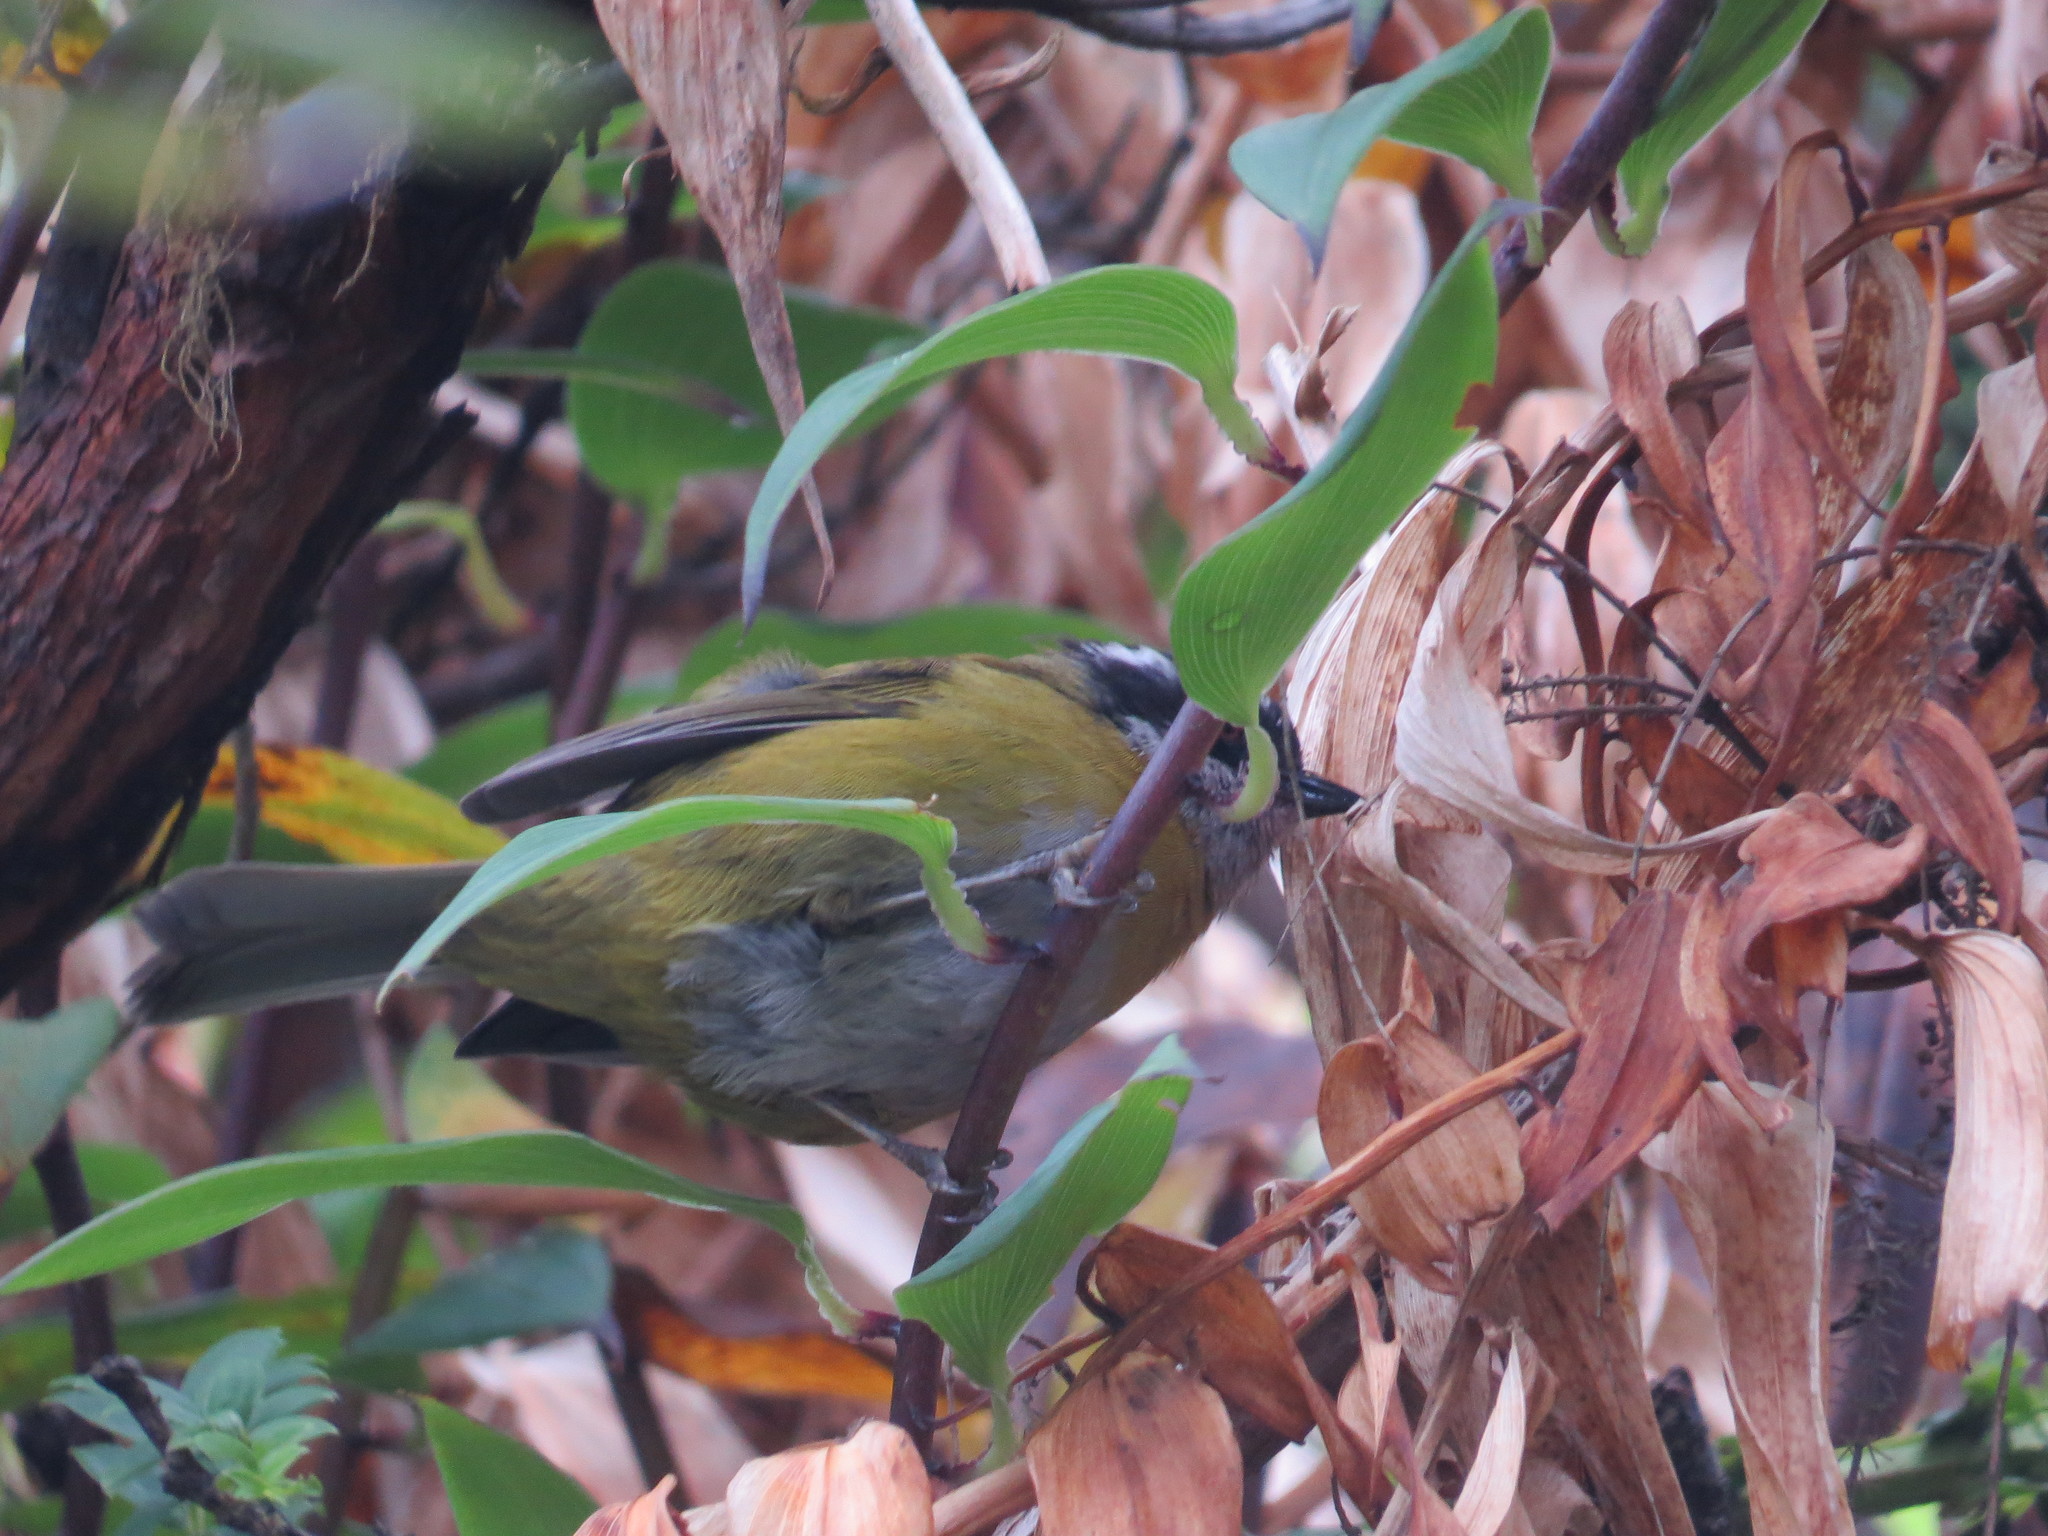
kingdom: Animalia
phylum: Chordata
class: Aves
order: Passeriformes
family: Passerellidae
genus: Chlorospingus
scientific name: Chlorospingus pileatus
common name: Sooty-capped bush-tanager
